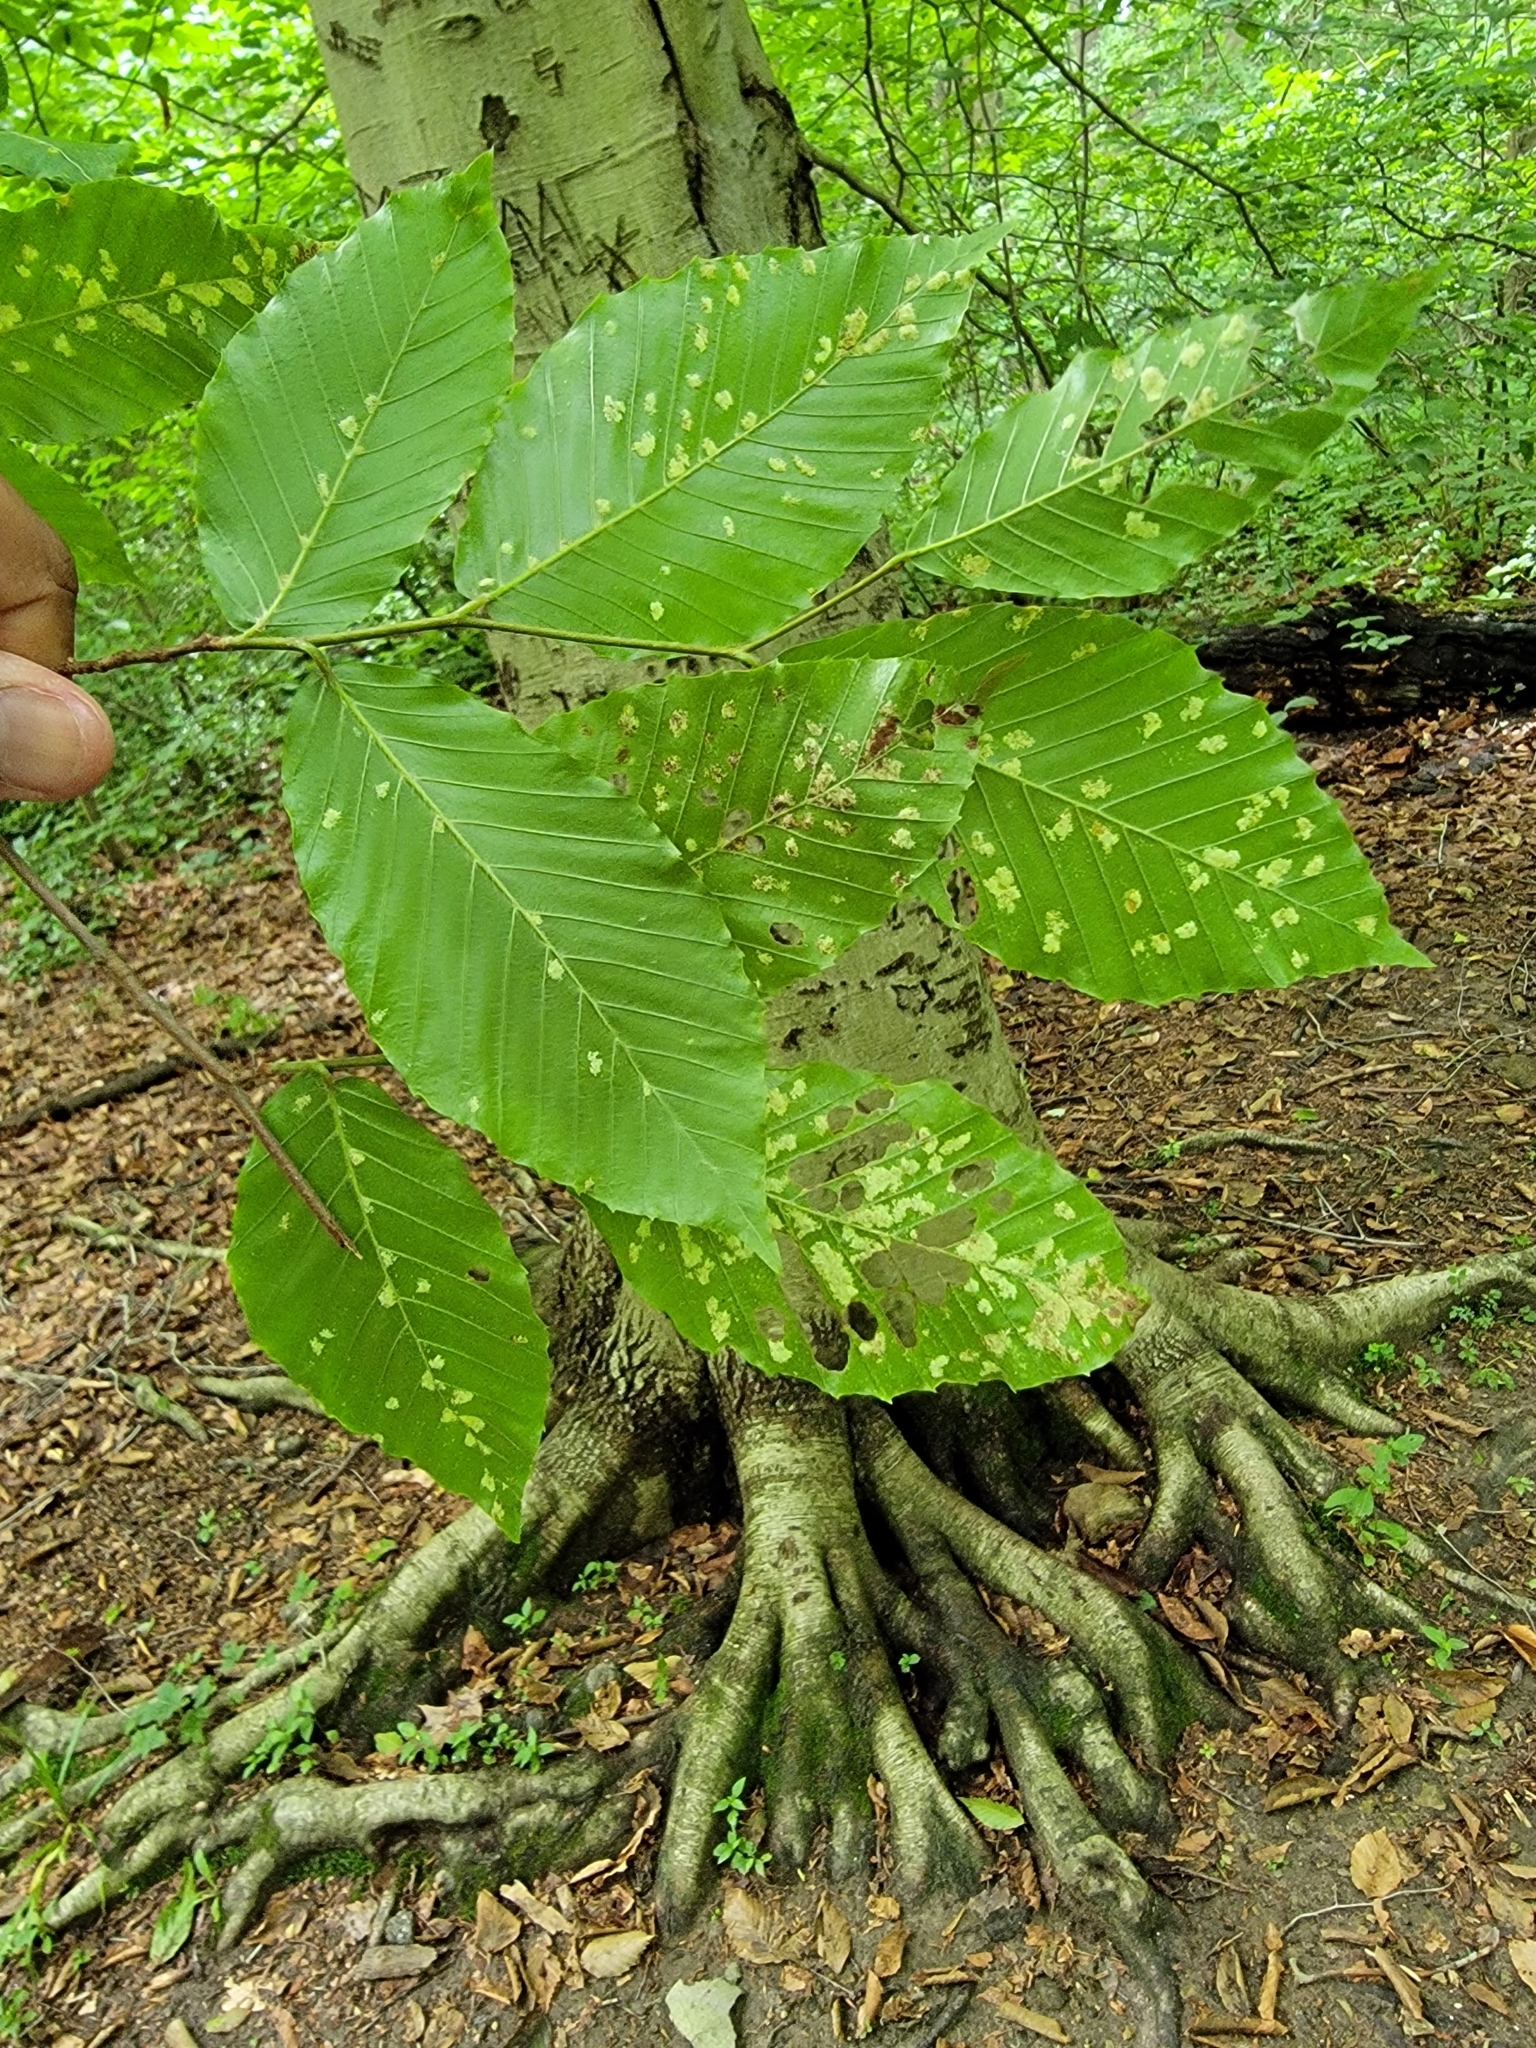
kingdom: Plantae
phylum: Tracheophyta
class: Magnoliopsida
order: Fagales
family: Fagaceae
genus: Fagus
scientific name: Fagus grandifolia
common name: American beech
